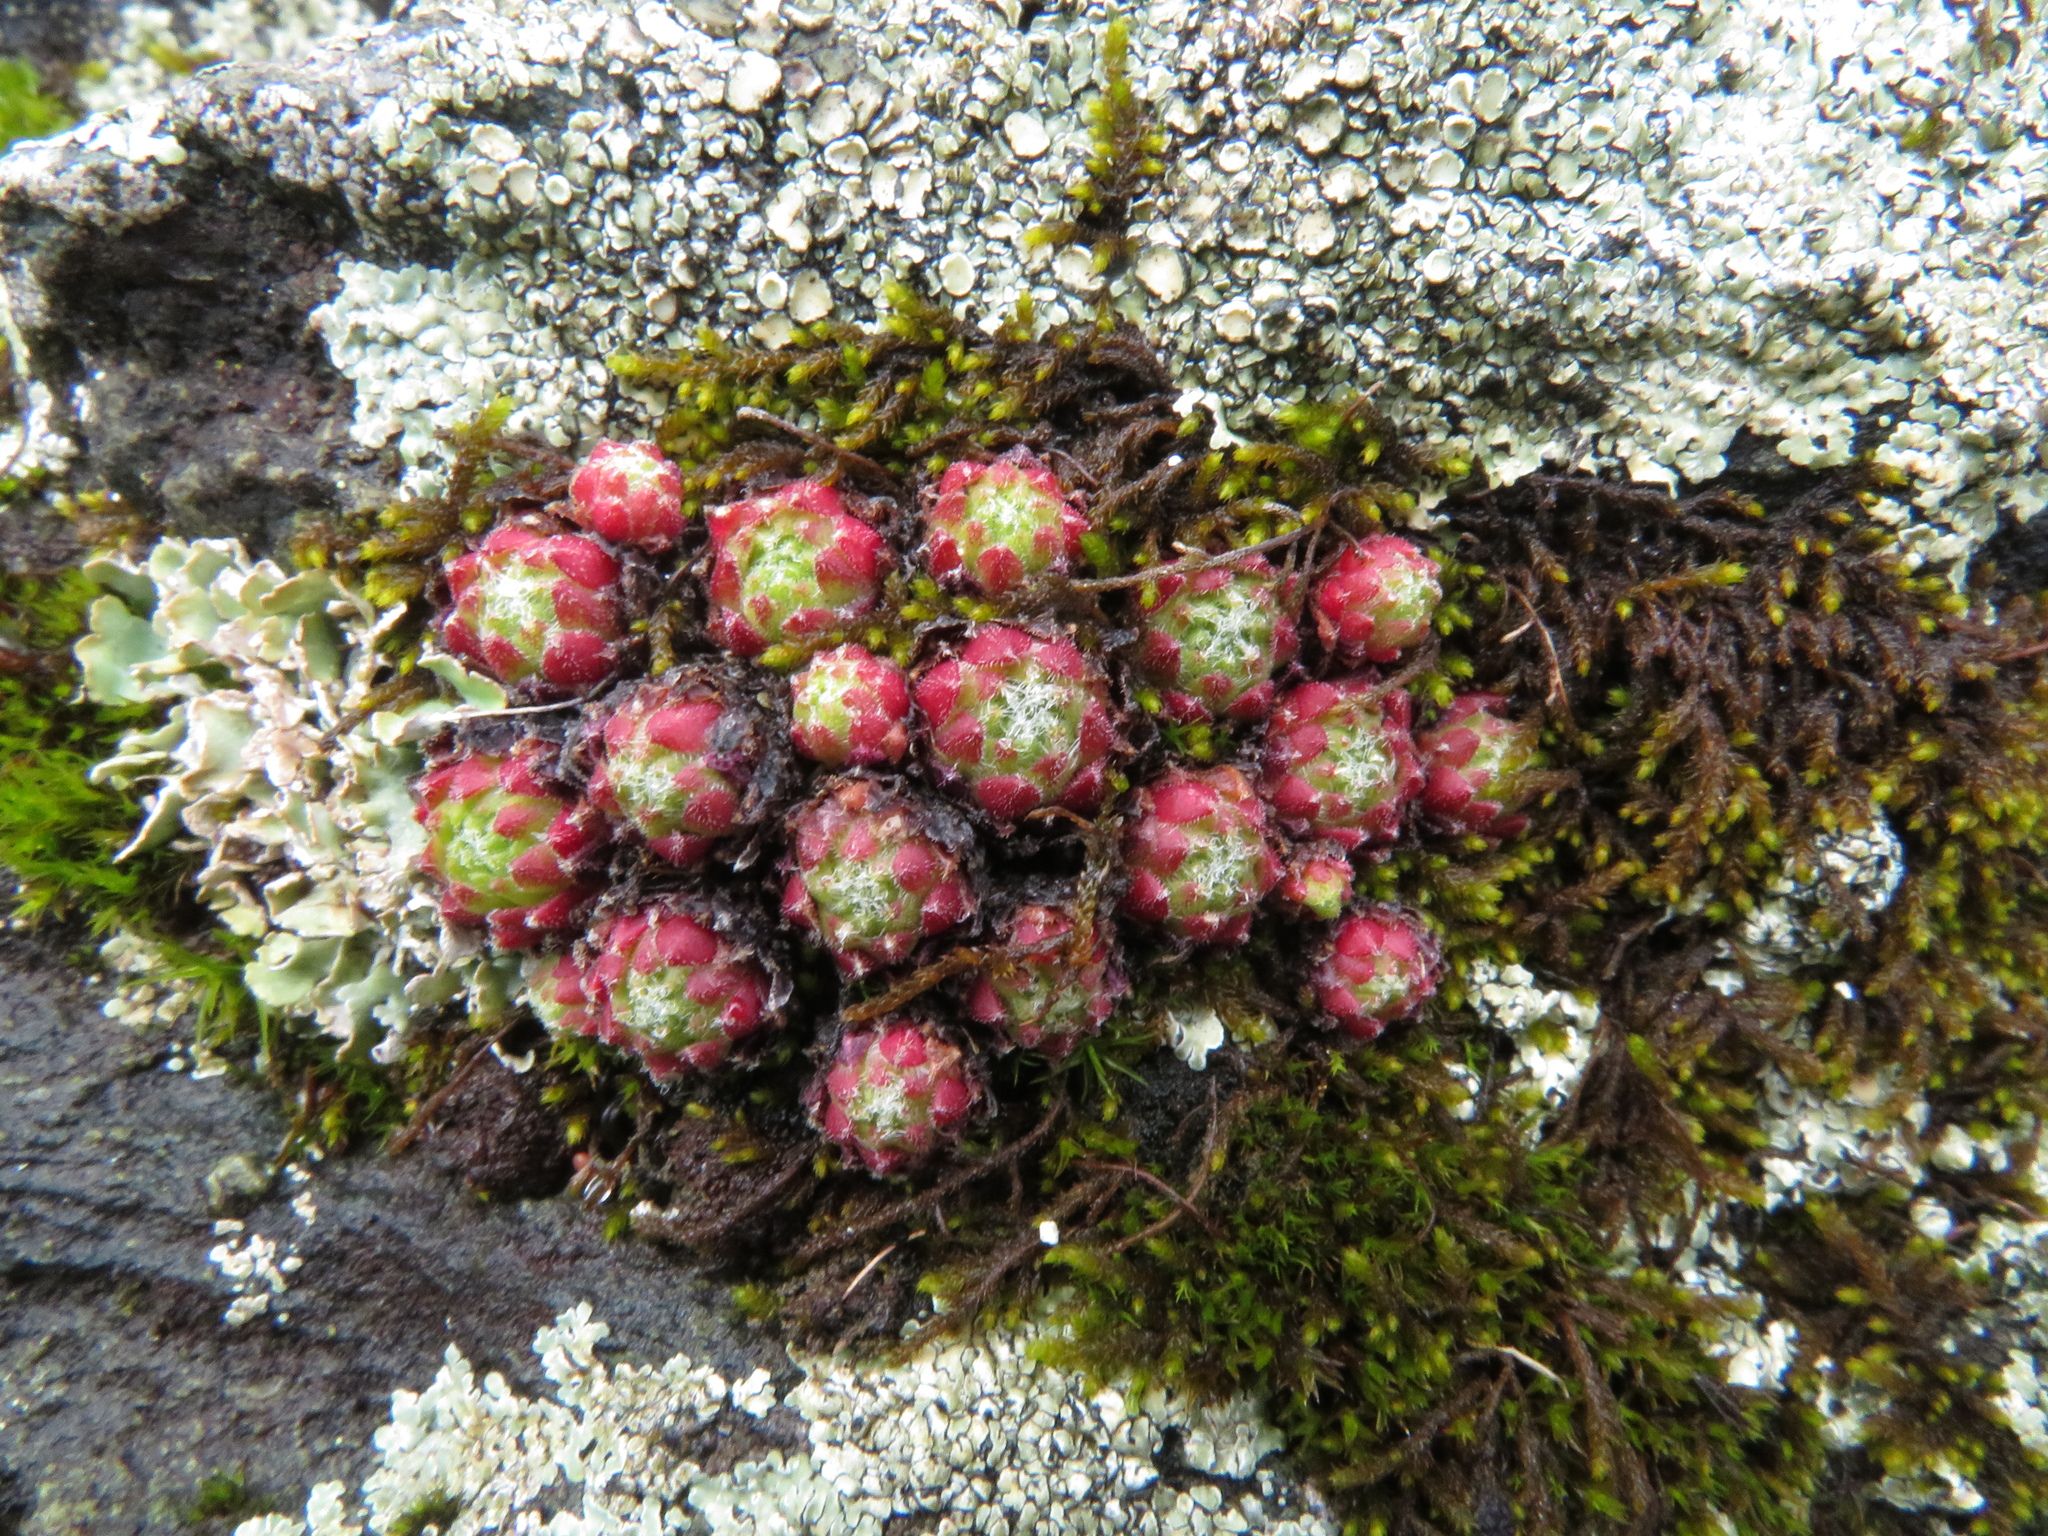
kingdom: Plantae
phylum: Tracheophyta
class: Magnoliopsida
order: Saxifragales
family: Crassulaceae
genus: Sempervivum
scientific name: Sempervivum arachnoideum
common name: Cobweb house-leek
